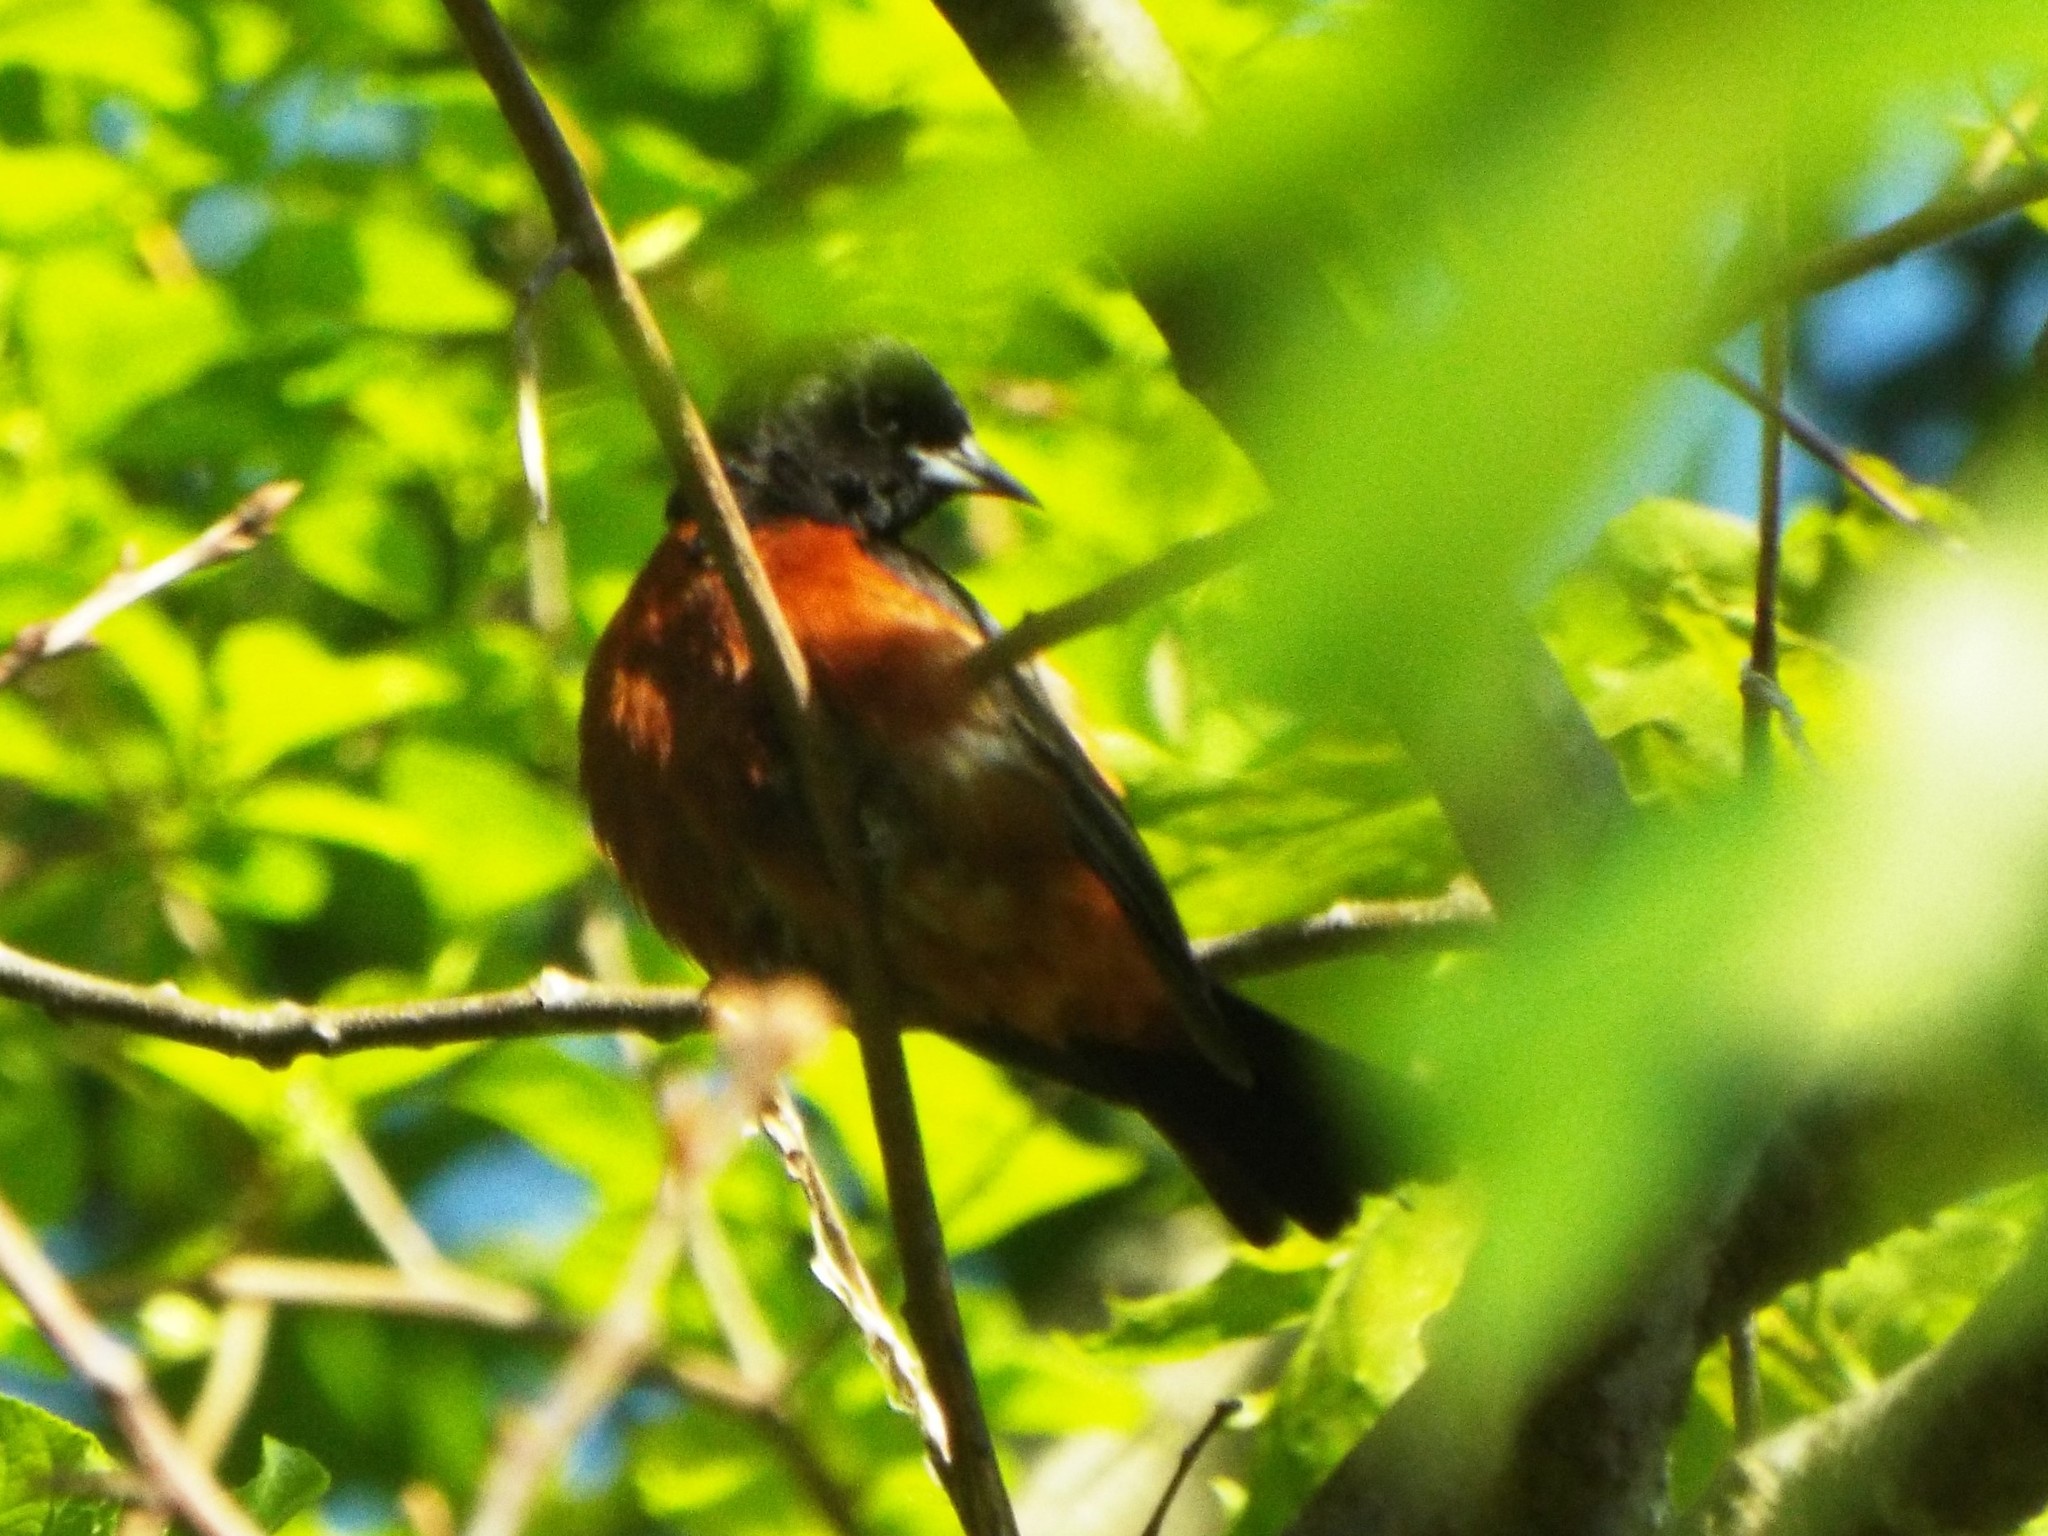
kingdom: Animalia
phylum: Chordata
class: Aves
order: Passeriformes
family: Icteridae
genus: Icterus
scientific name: Icterus spurius
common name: Orchard oriole
